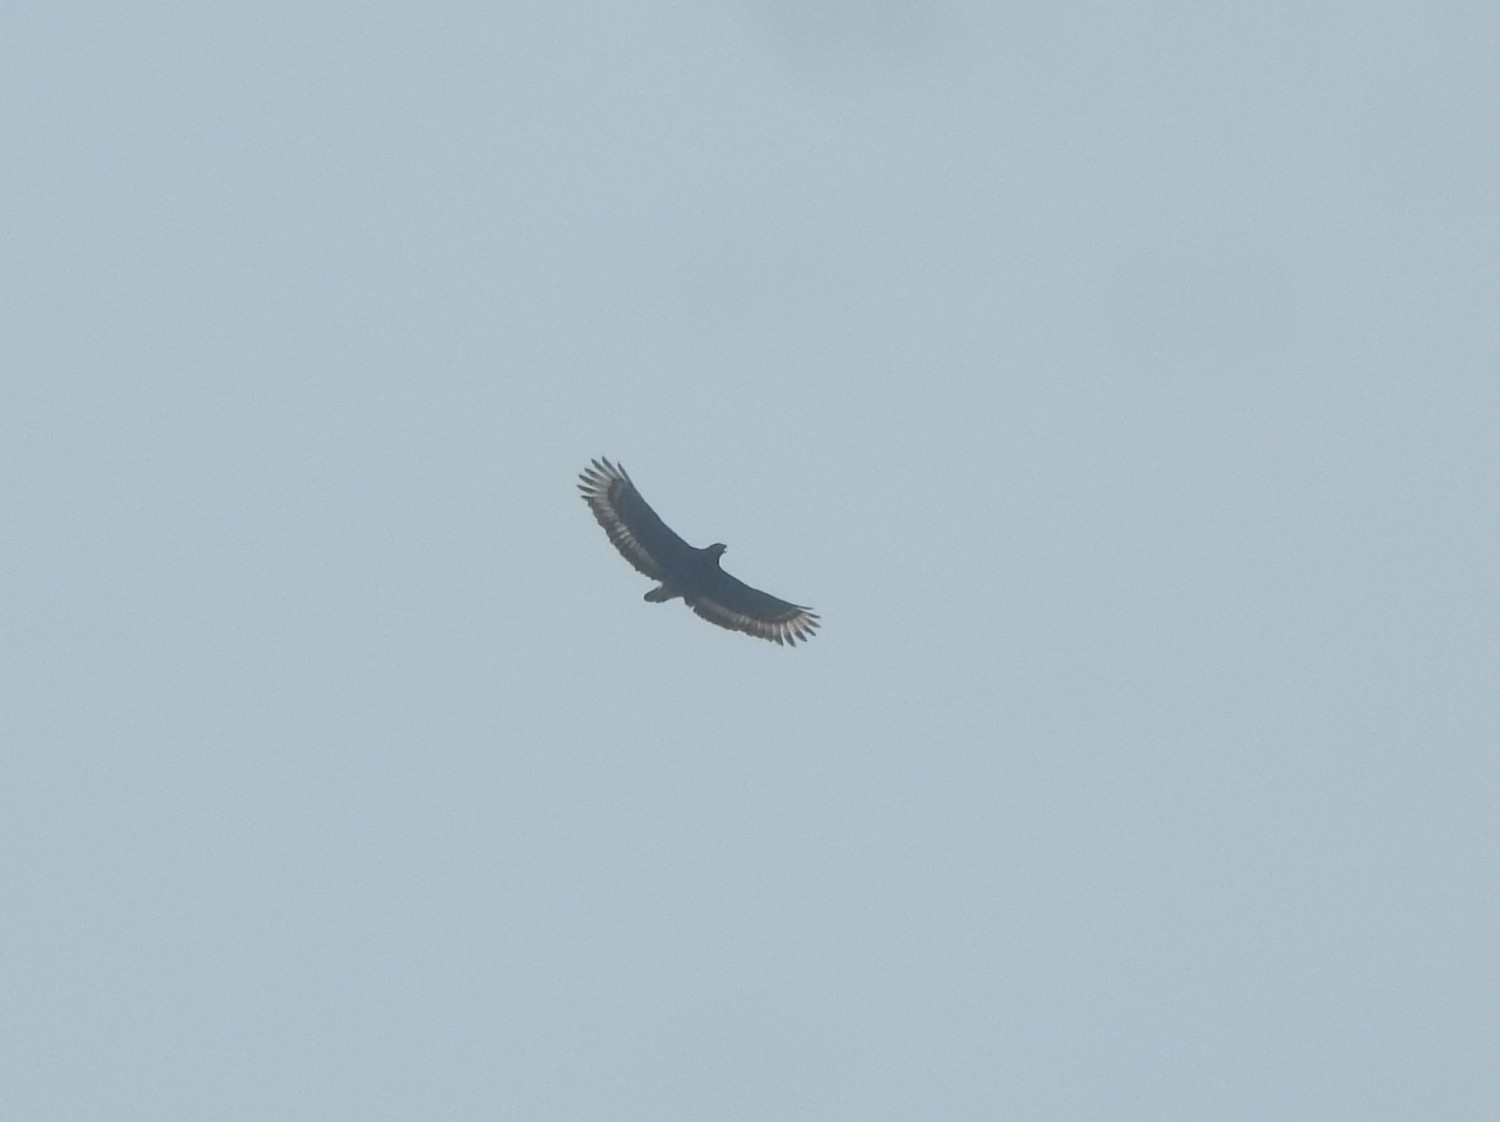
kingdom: Animalia
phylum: Chordata
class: Aves
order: Accipitriformes
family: Accipitridae
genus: Spilornis
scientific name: Spilornis cheela
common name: Crested serpent eagle
